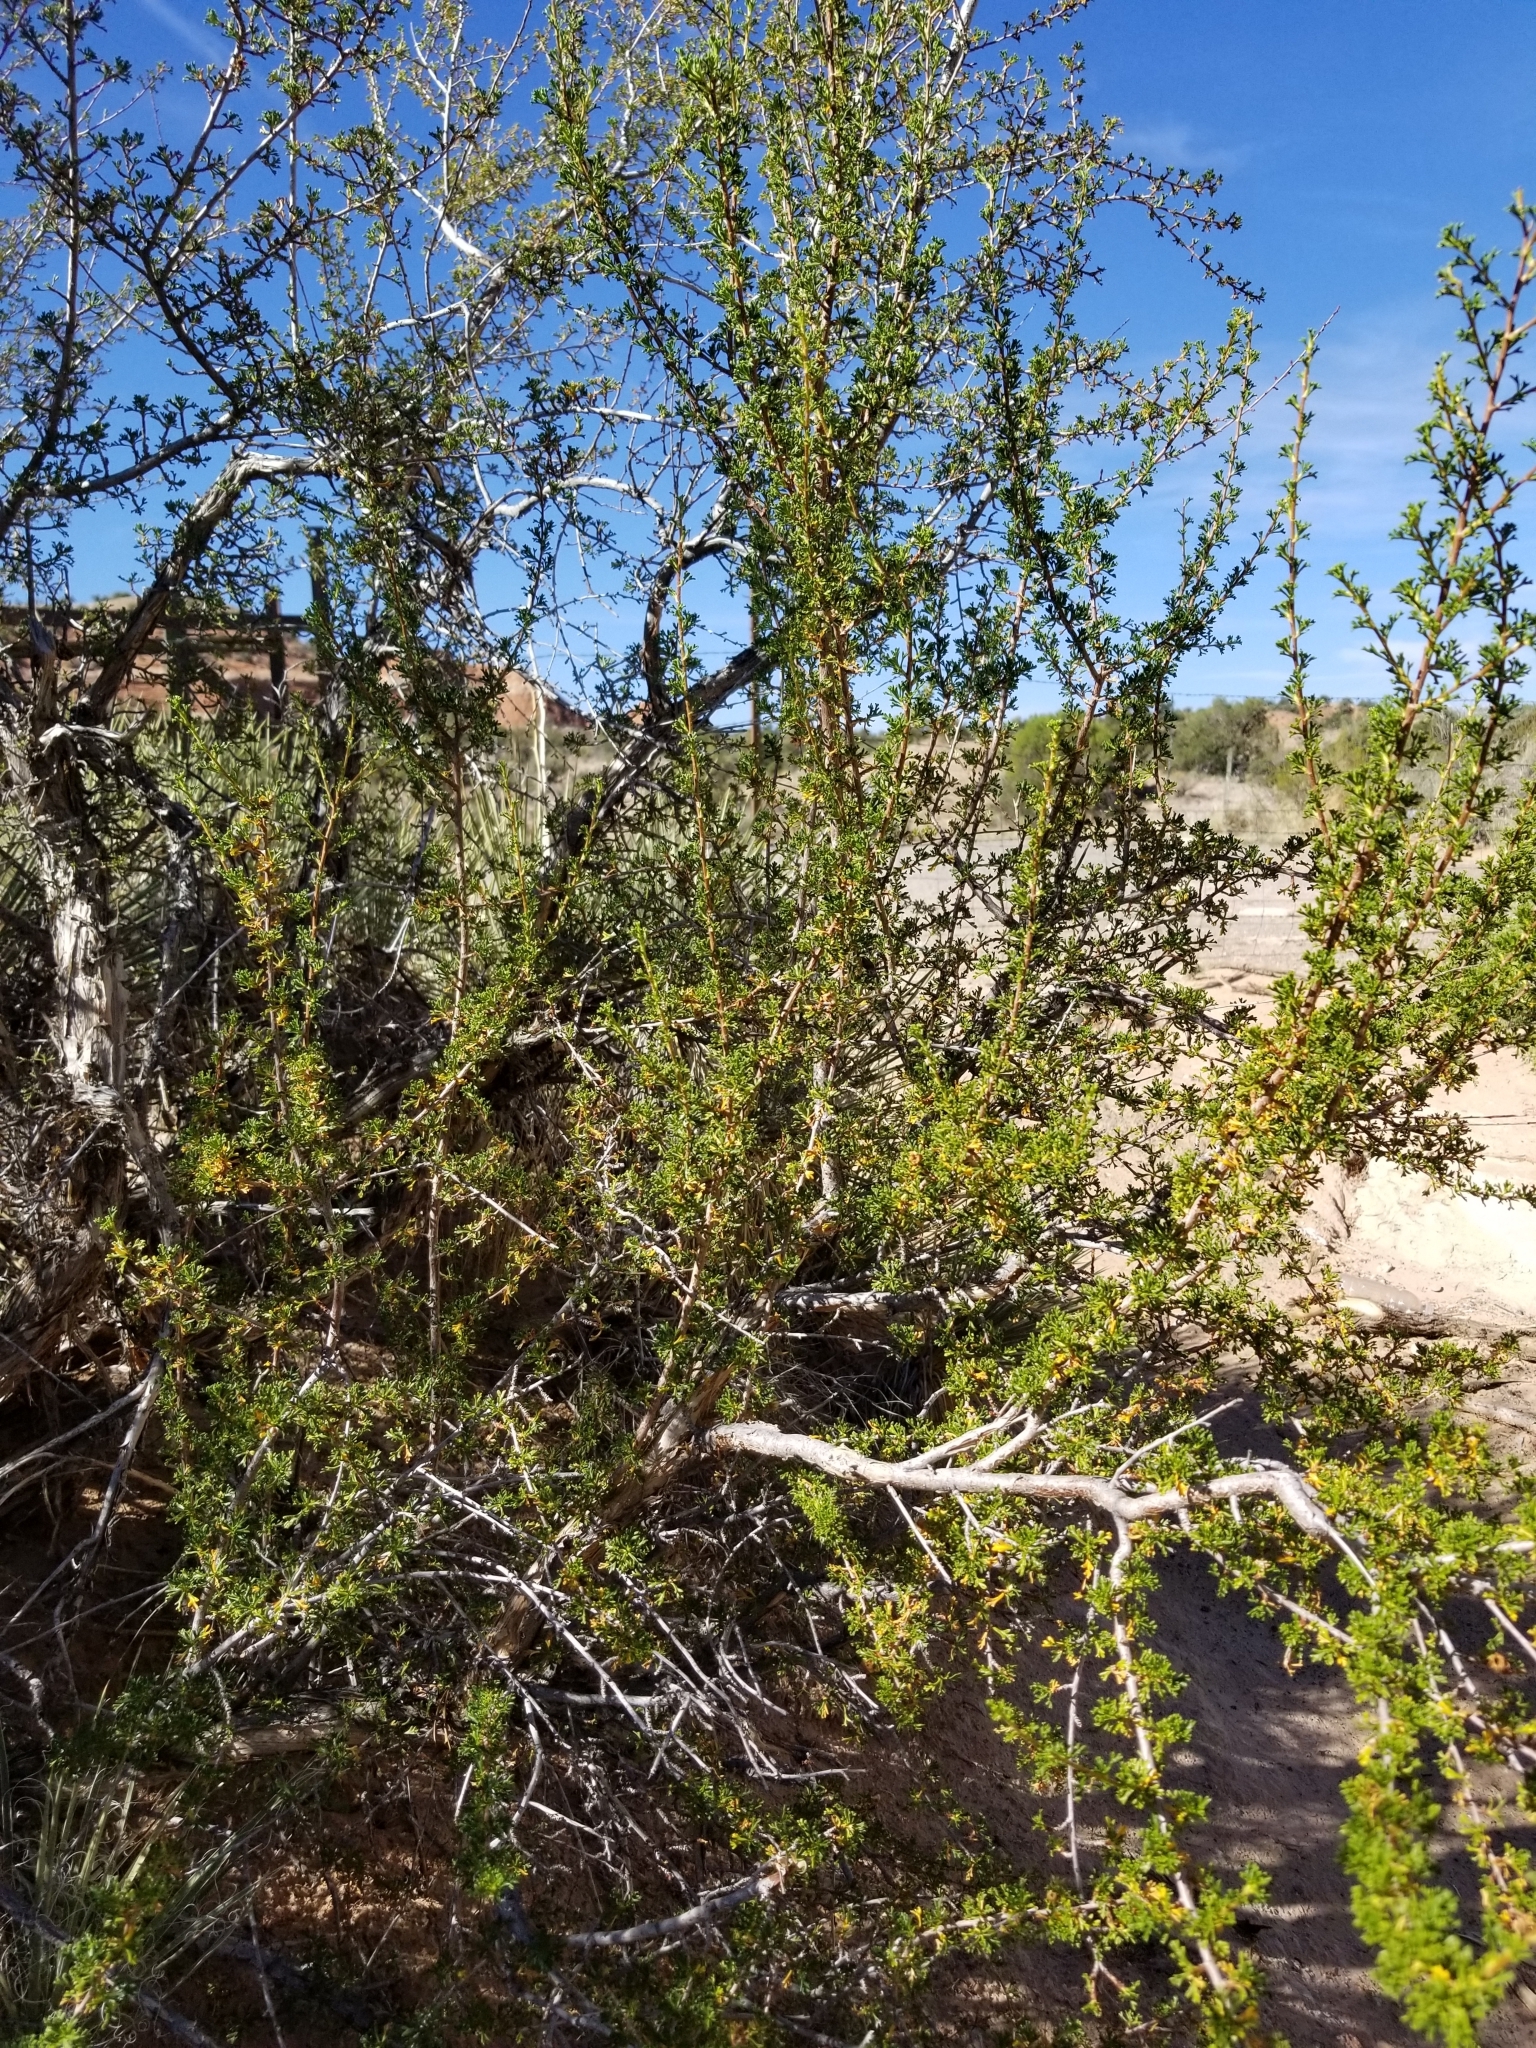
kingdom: Plantae
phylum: Tracheophyta
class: Magnoliopsida
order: Rosales
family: Rosaceae
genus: Purshia
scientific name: Purshia stansburiana
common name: Stansbury's cliffrose
